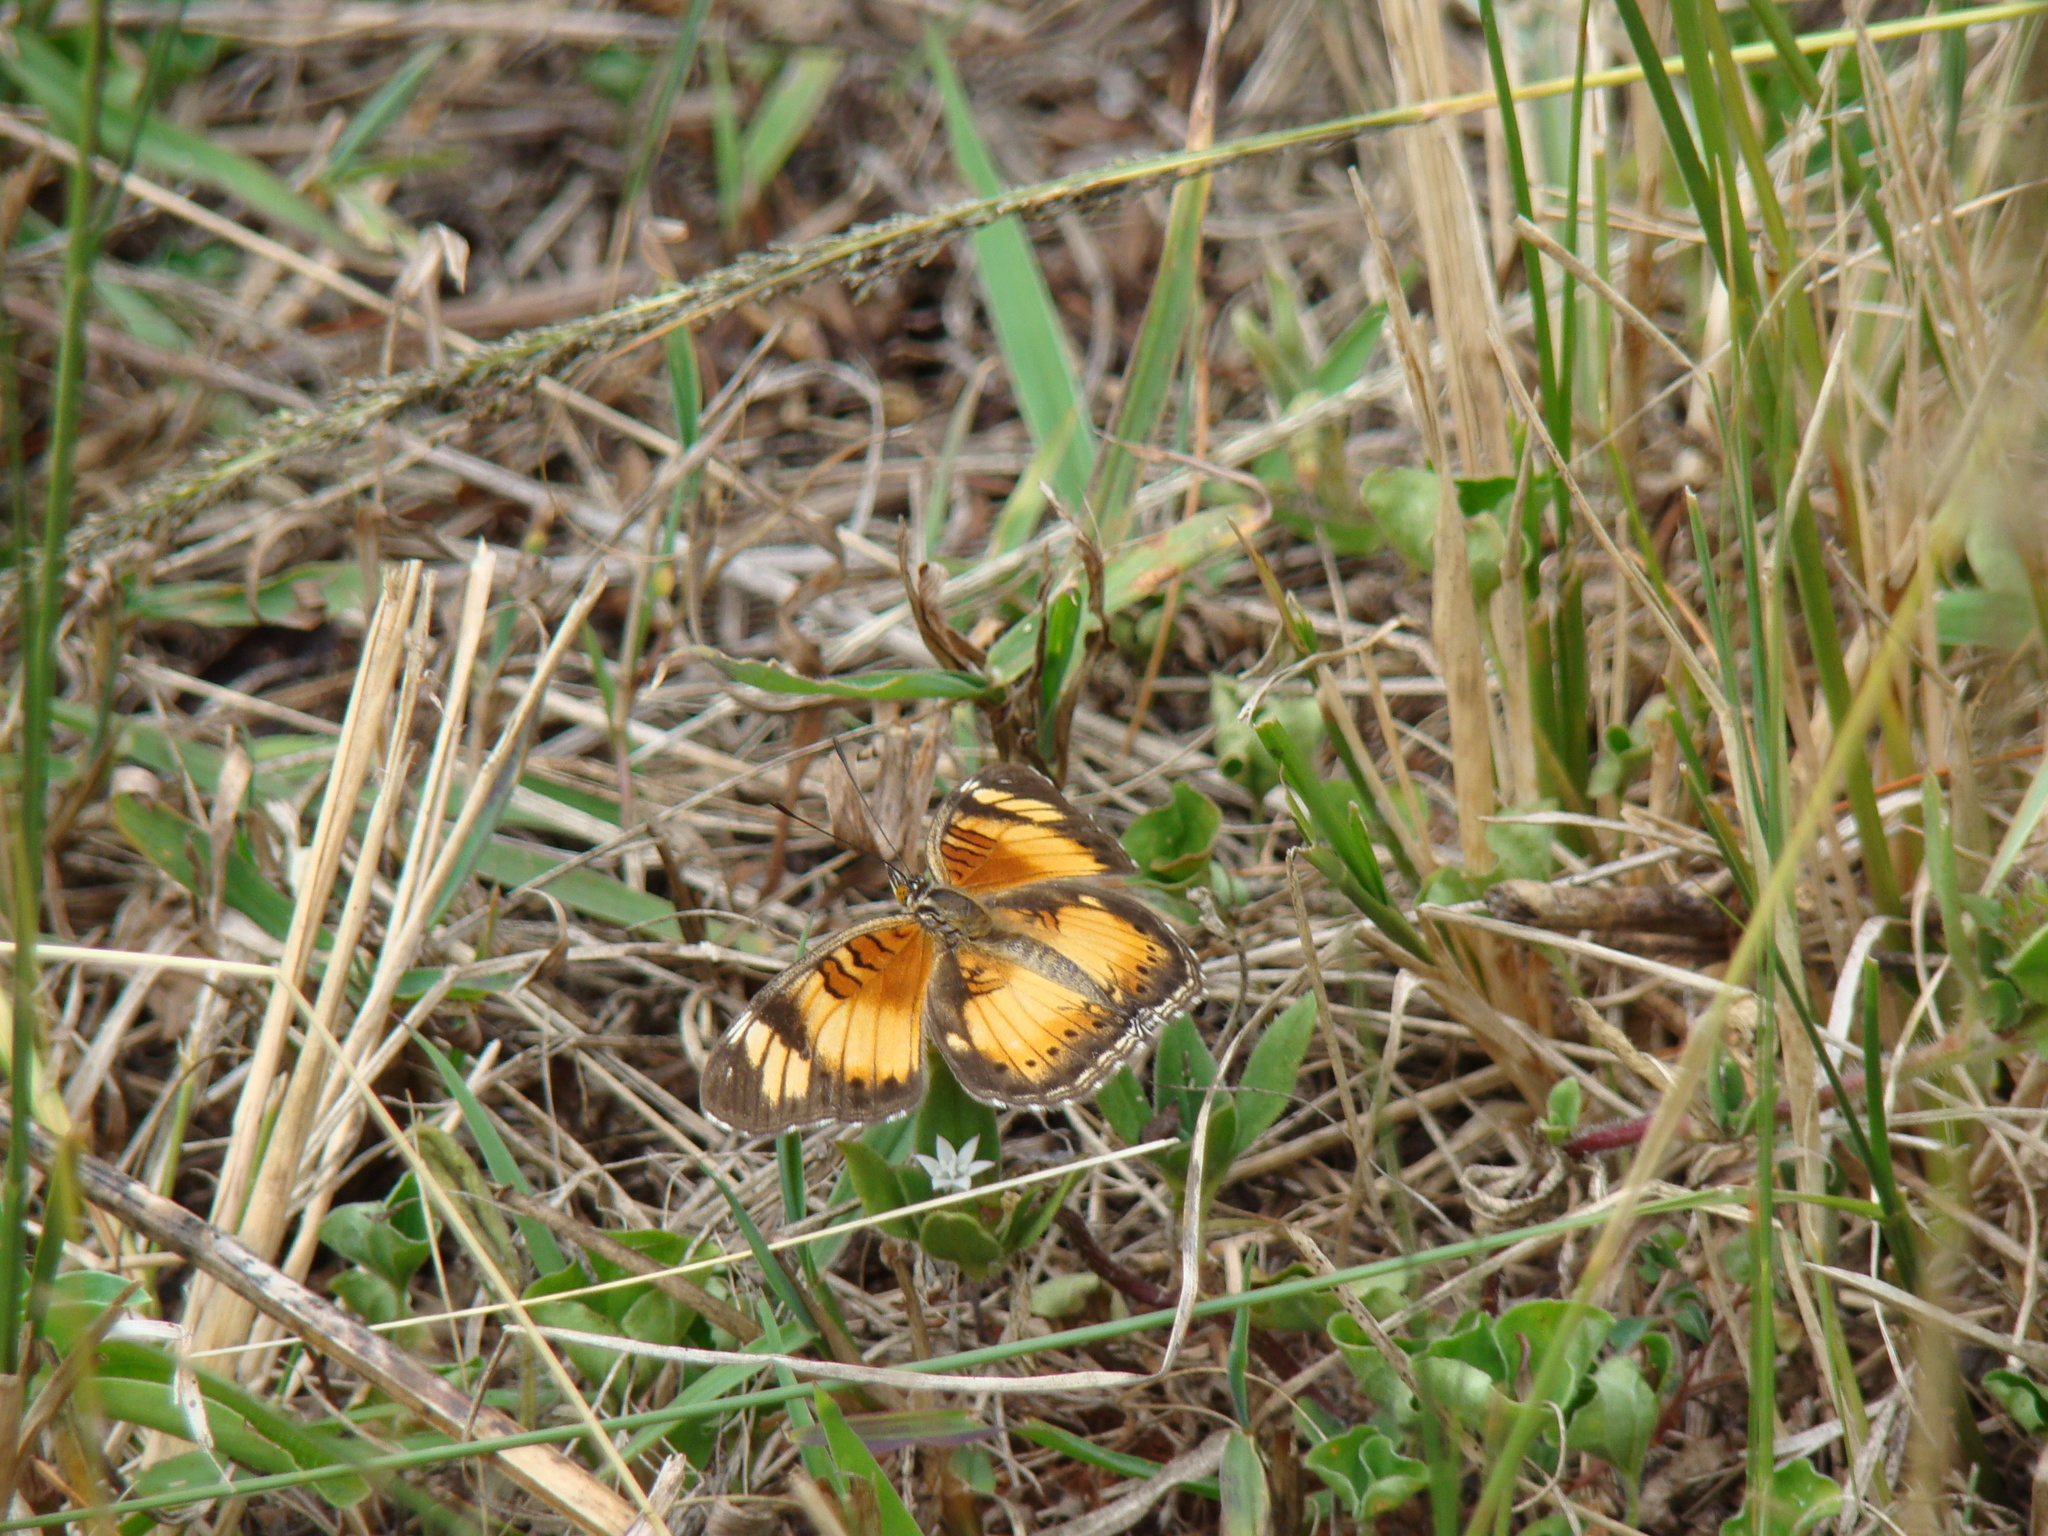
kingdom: Animalia
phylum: Arthropoda
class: Insecta
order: Lepidoptera
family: Nymphalidae
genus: Junonia
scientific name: Junonia sophia
